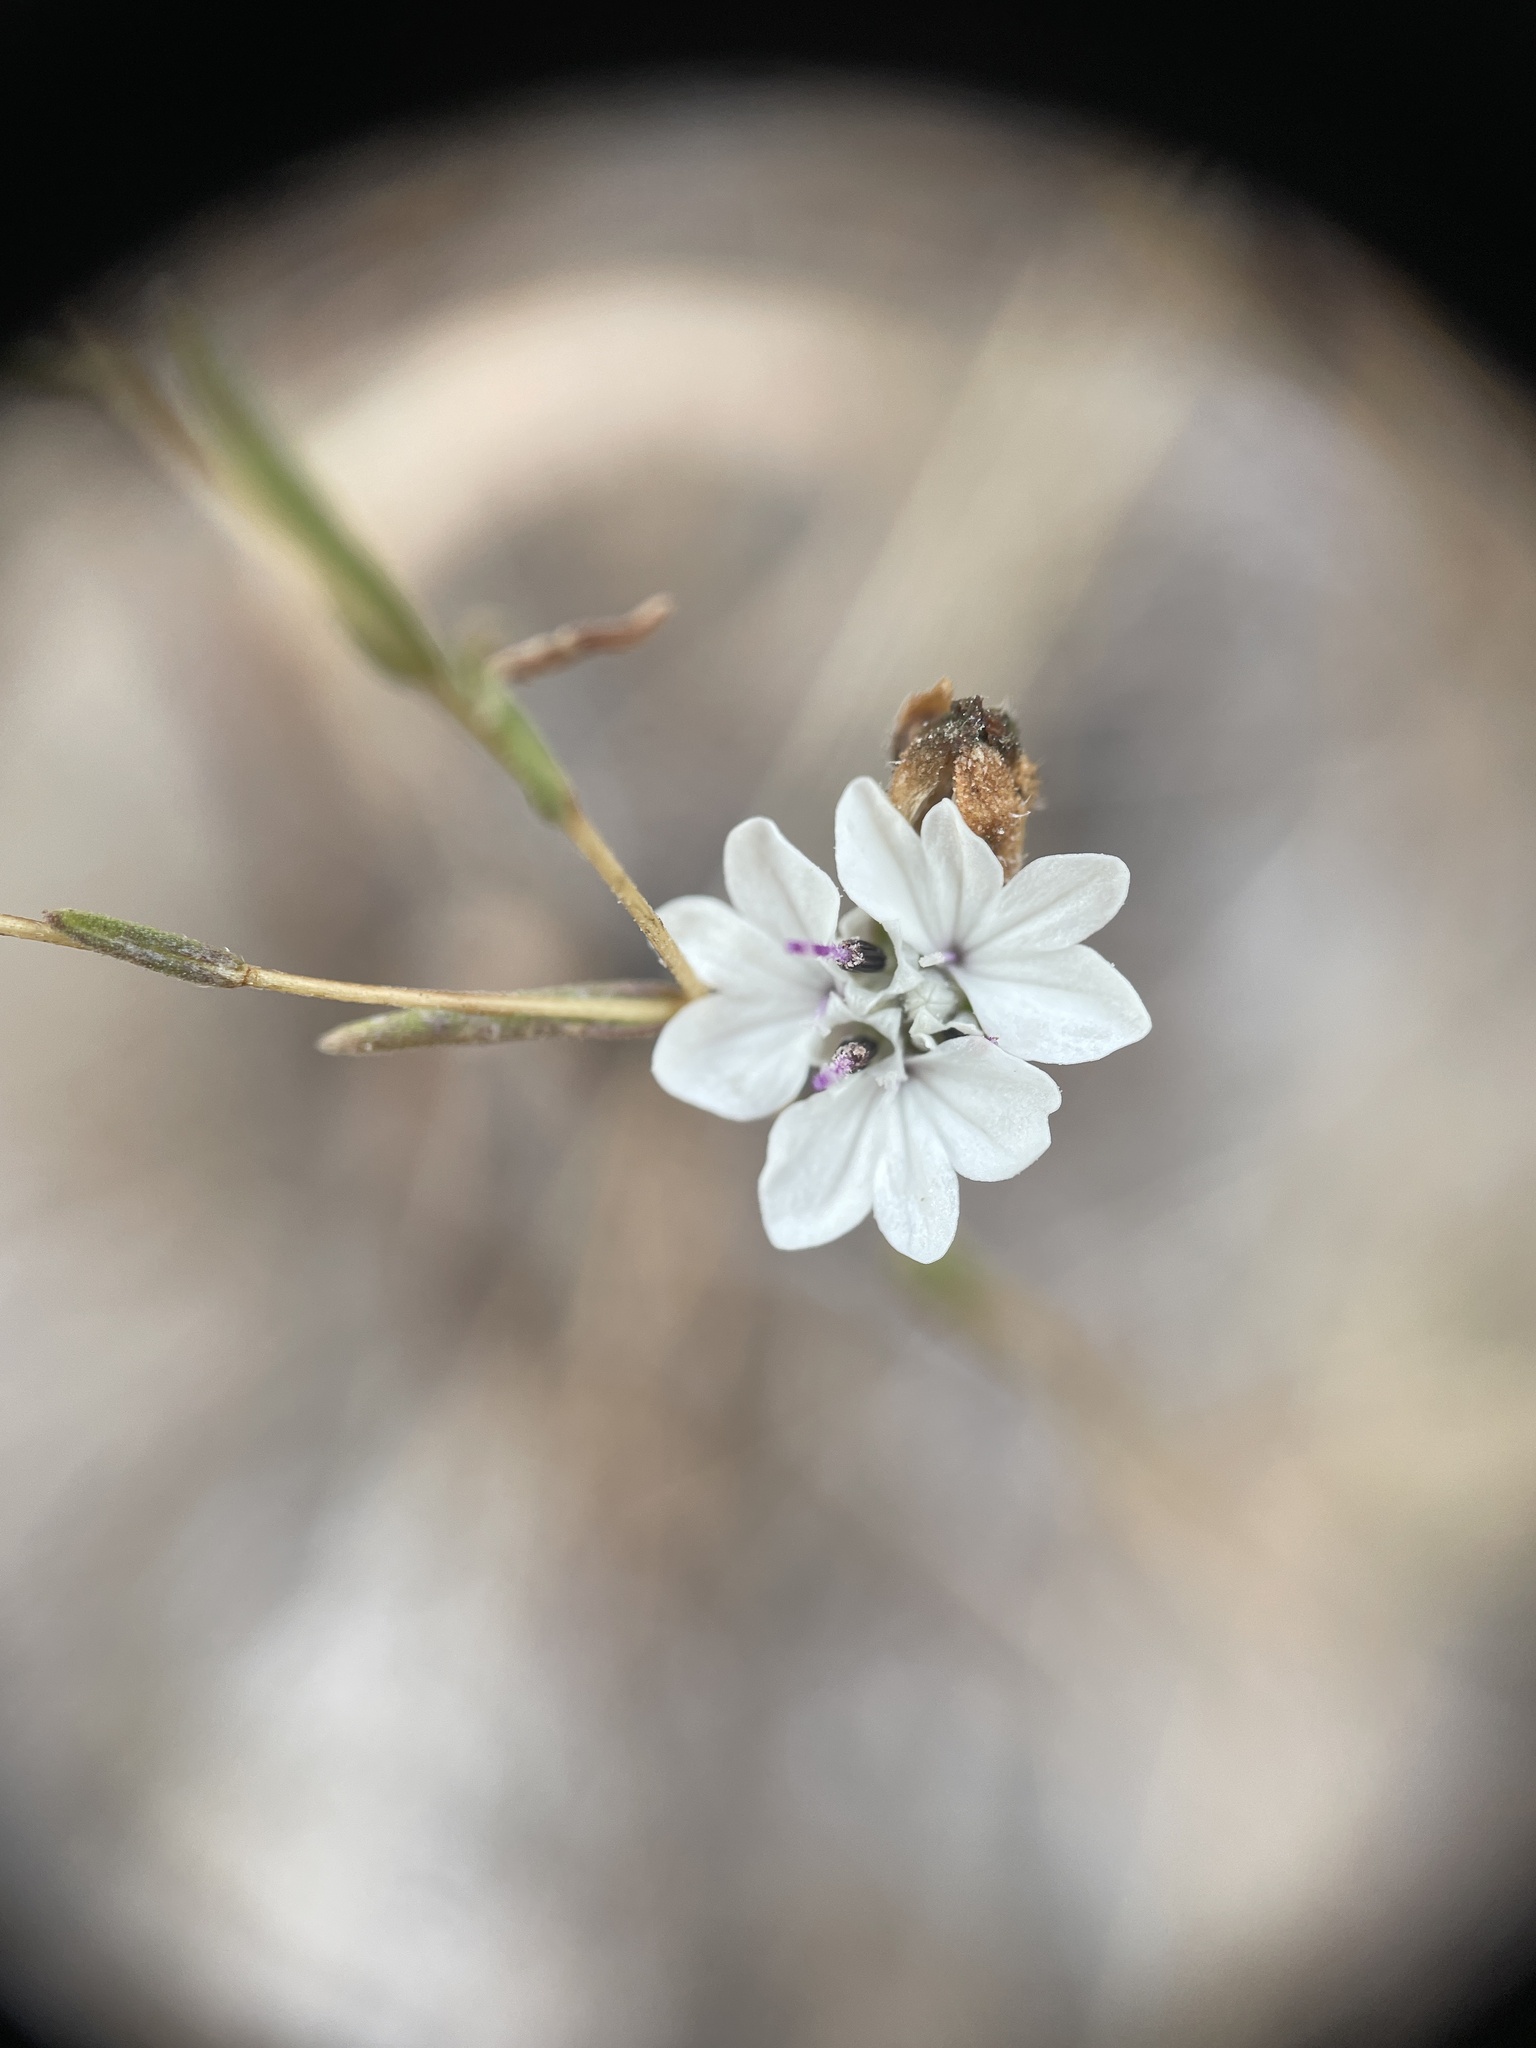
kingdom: Plantae
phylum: Tracheophyta
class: Magnoliopsida
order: Asterales
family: Asteraceae
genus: Blepharipappus
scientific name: Blepharipappus scaber
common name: Rough blepharipappus
